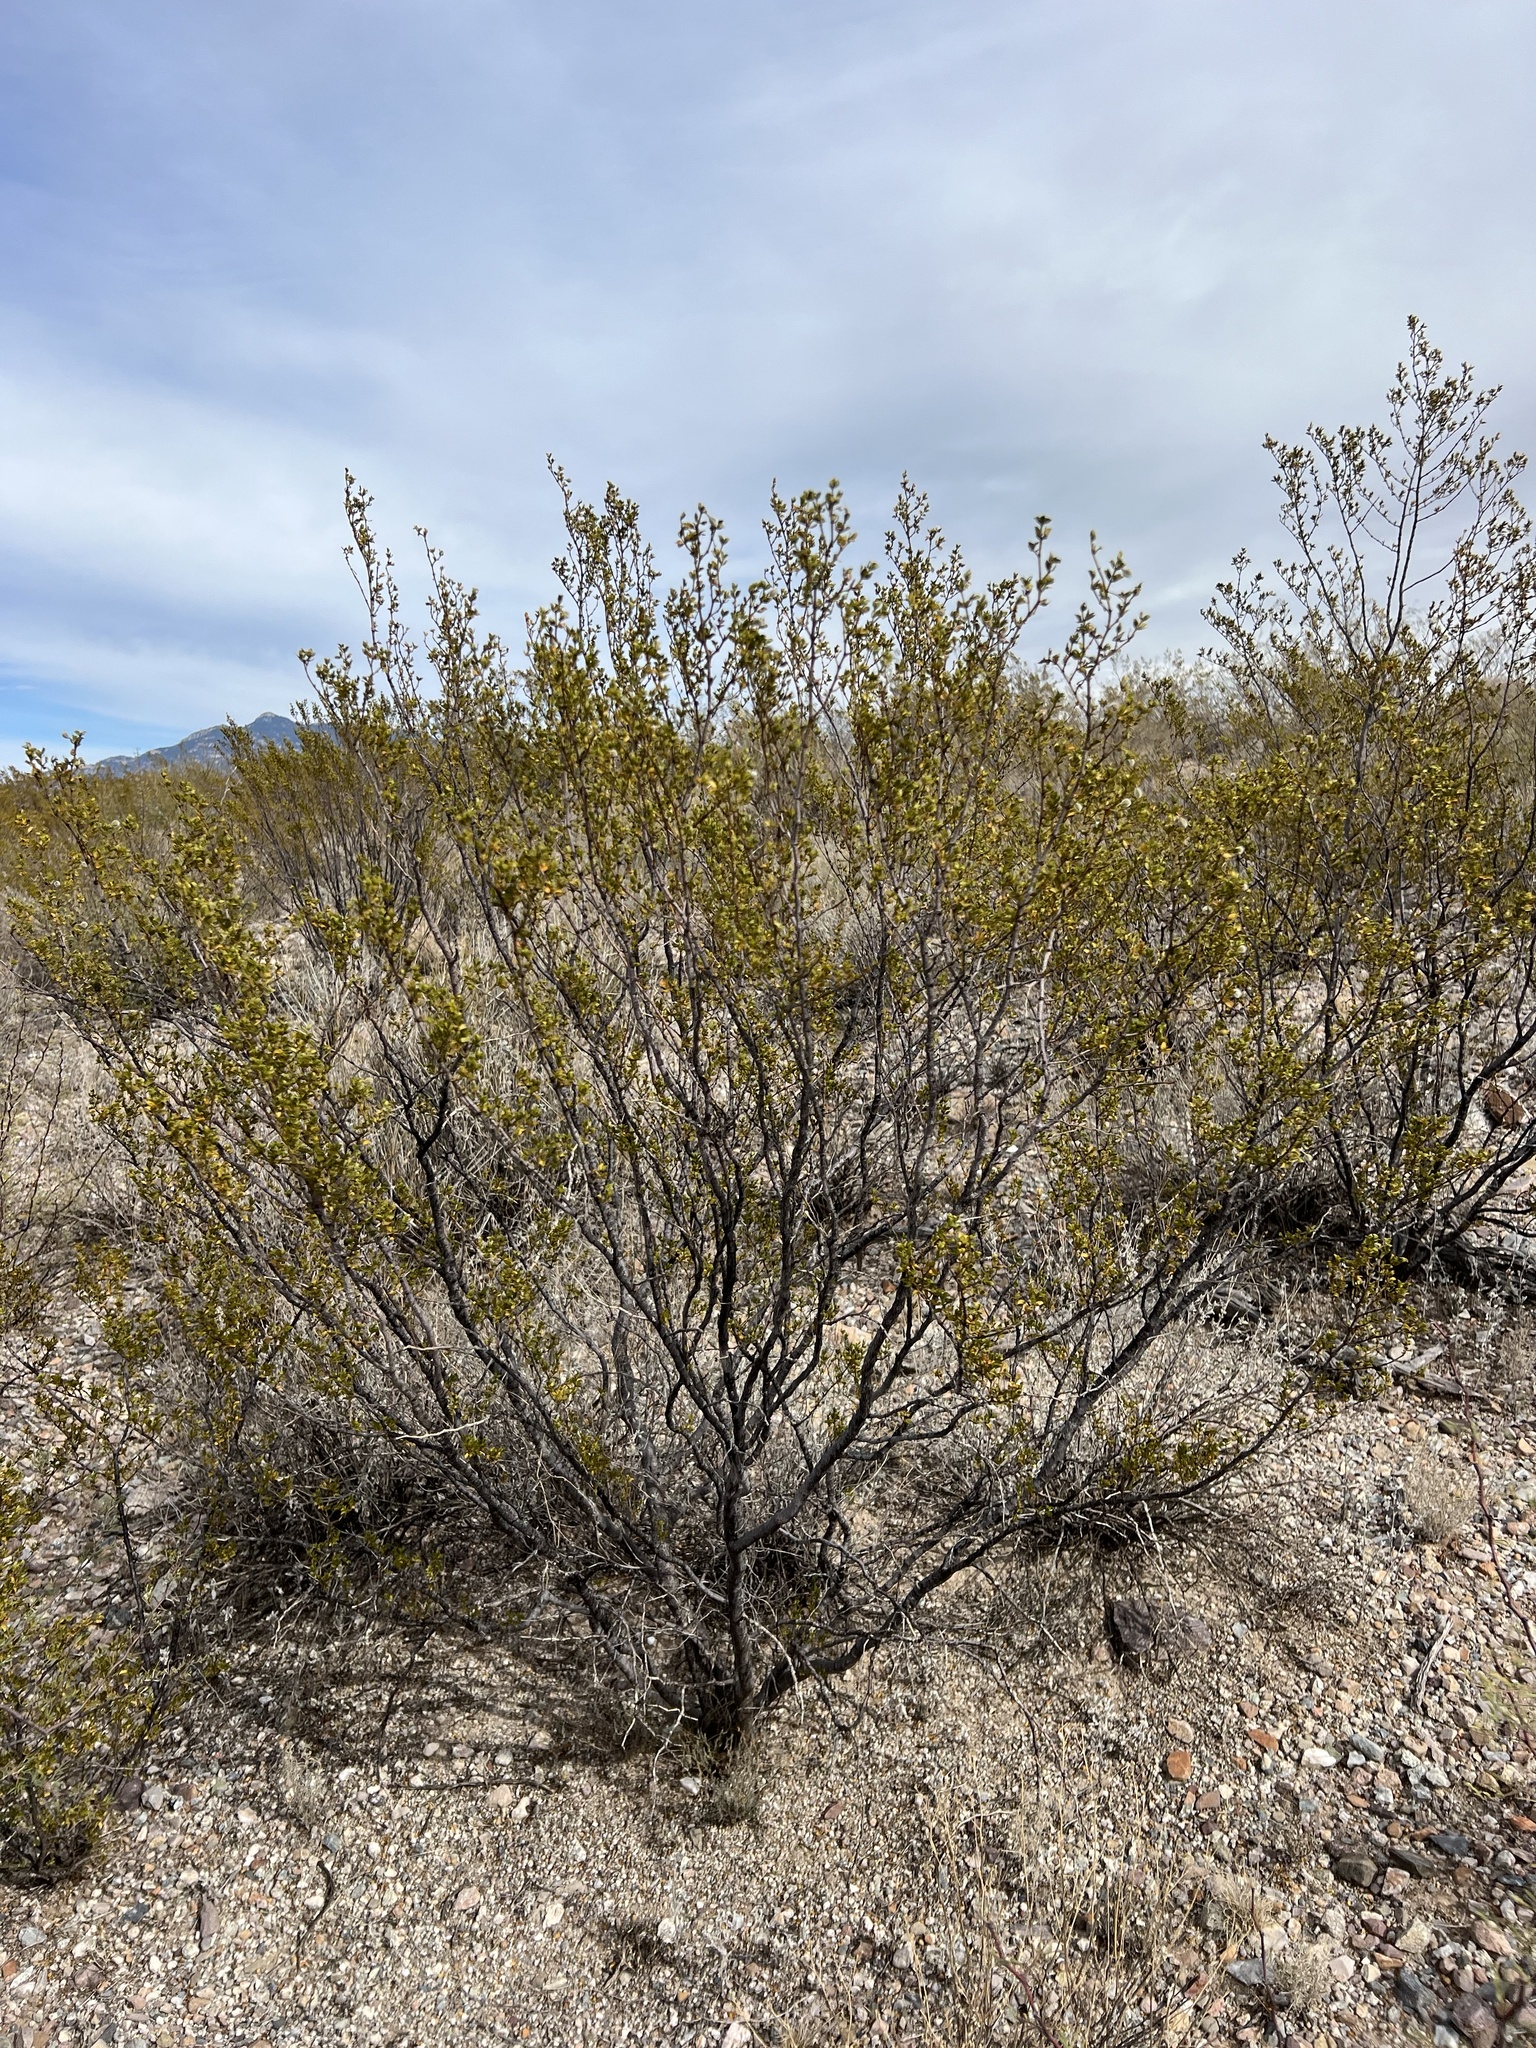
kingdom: Plantae
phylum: Tracheophyta
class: Magnoliopsida
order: Zygophyllales
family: Zygophyllaceae
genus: Larrea
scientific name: Larrea tridentata
